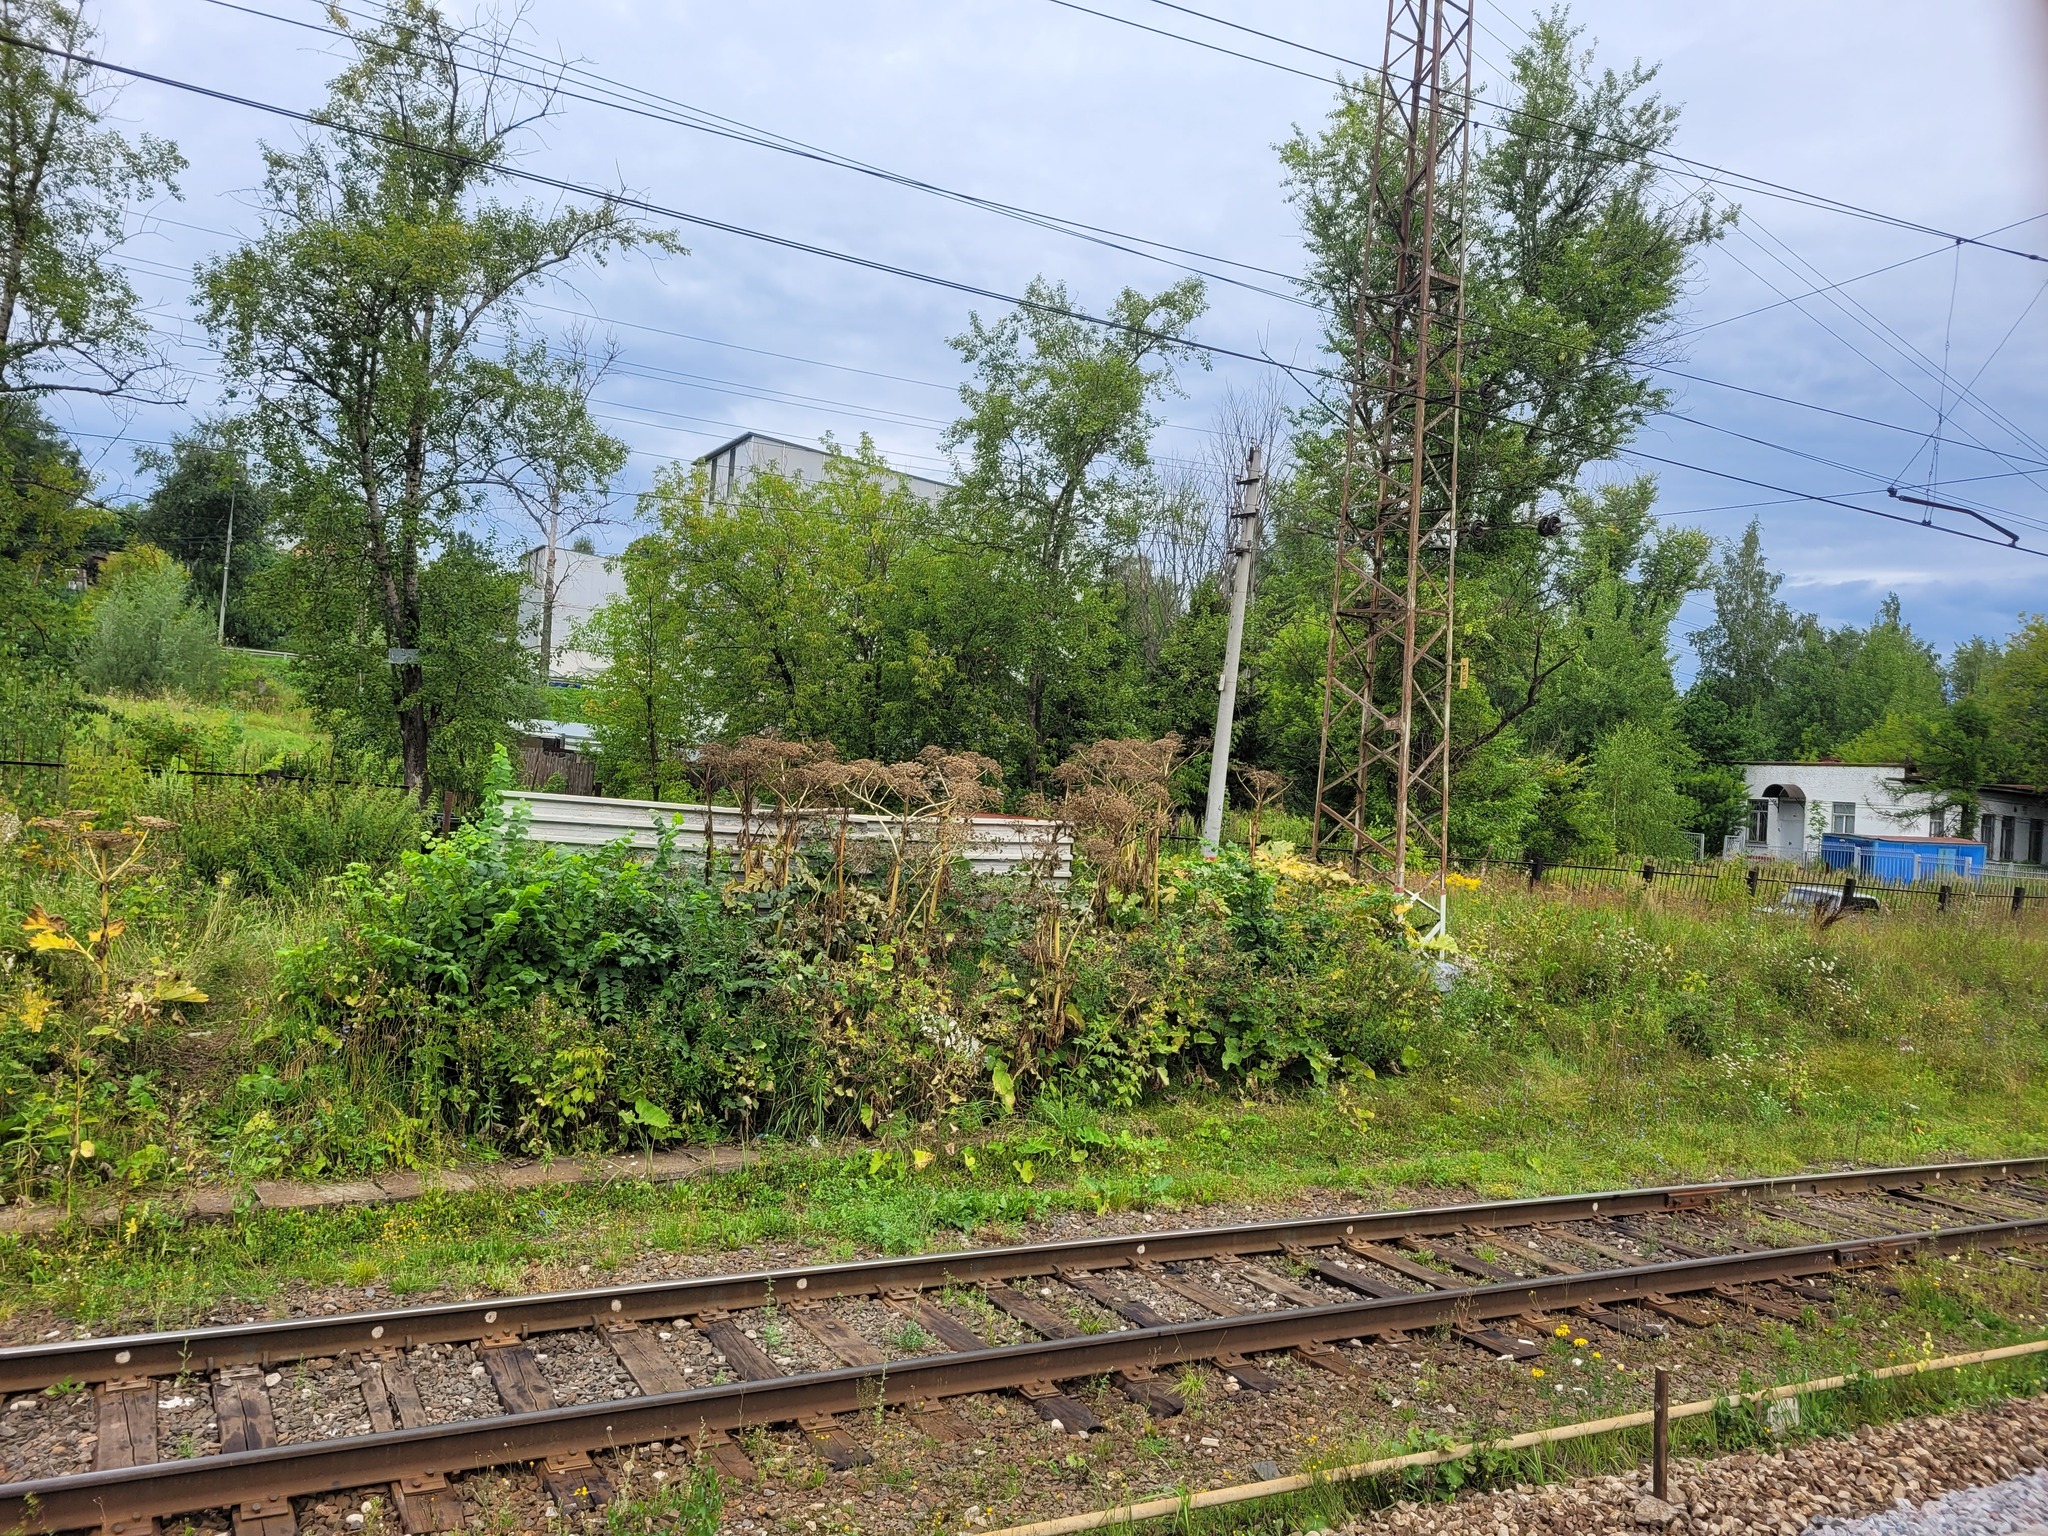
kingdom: Plantae
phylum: Tracheophyta
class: Magnoliopsida
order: Apiales
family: Apiaceae
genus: Heracleum
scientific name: Heracleum sosnowskyi
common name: Sosnowsky's hogweed
